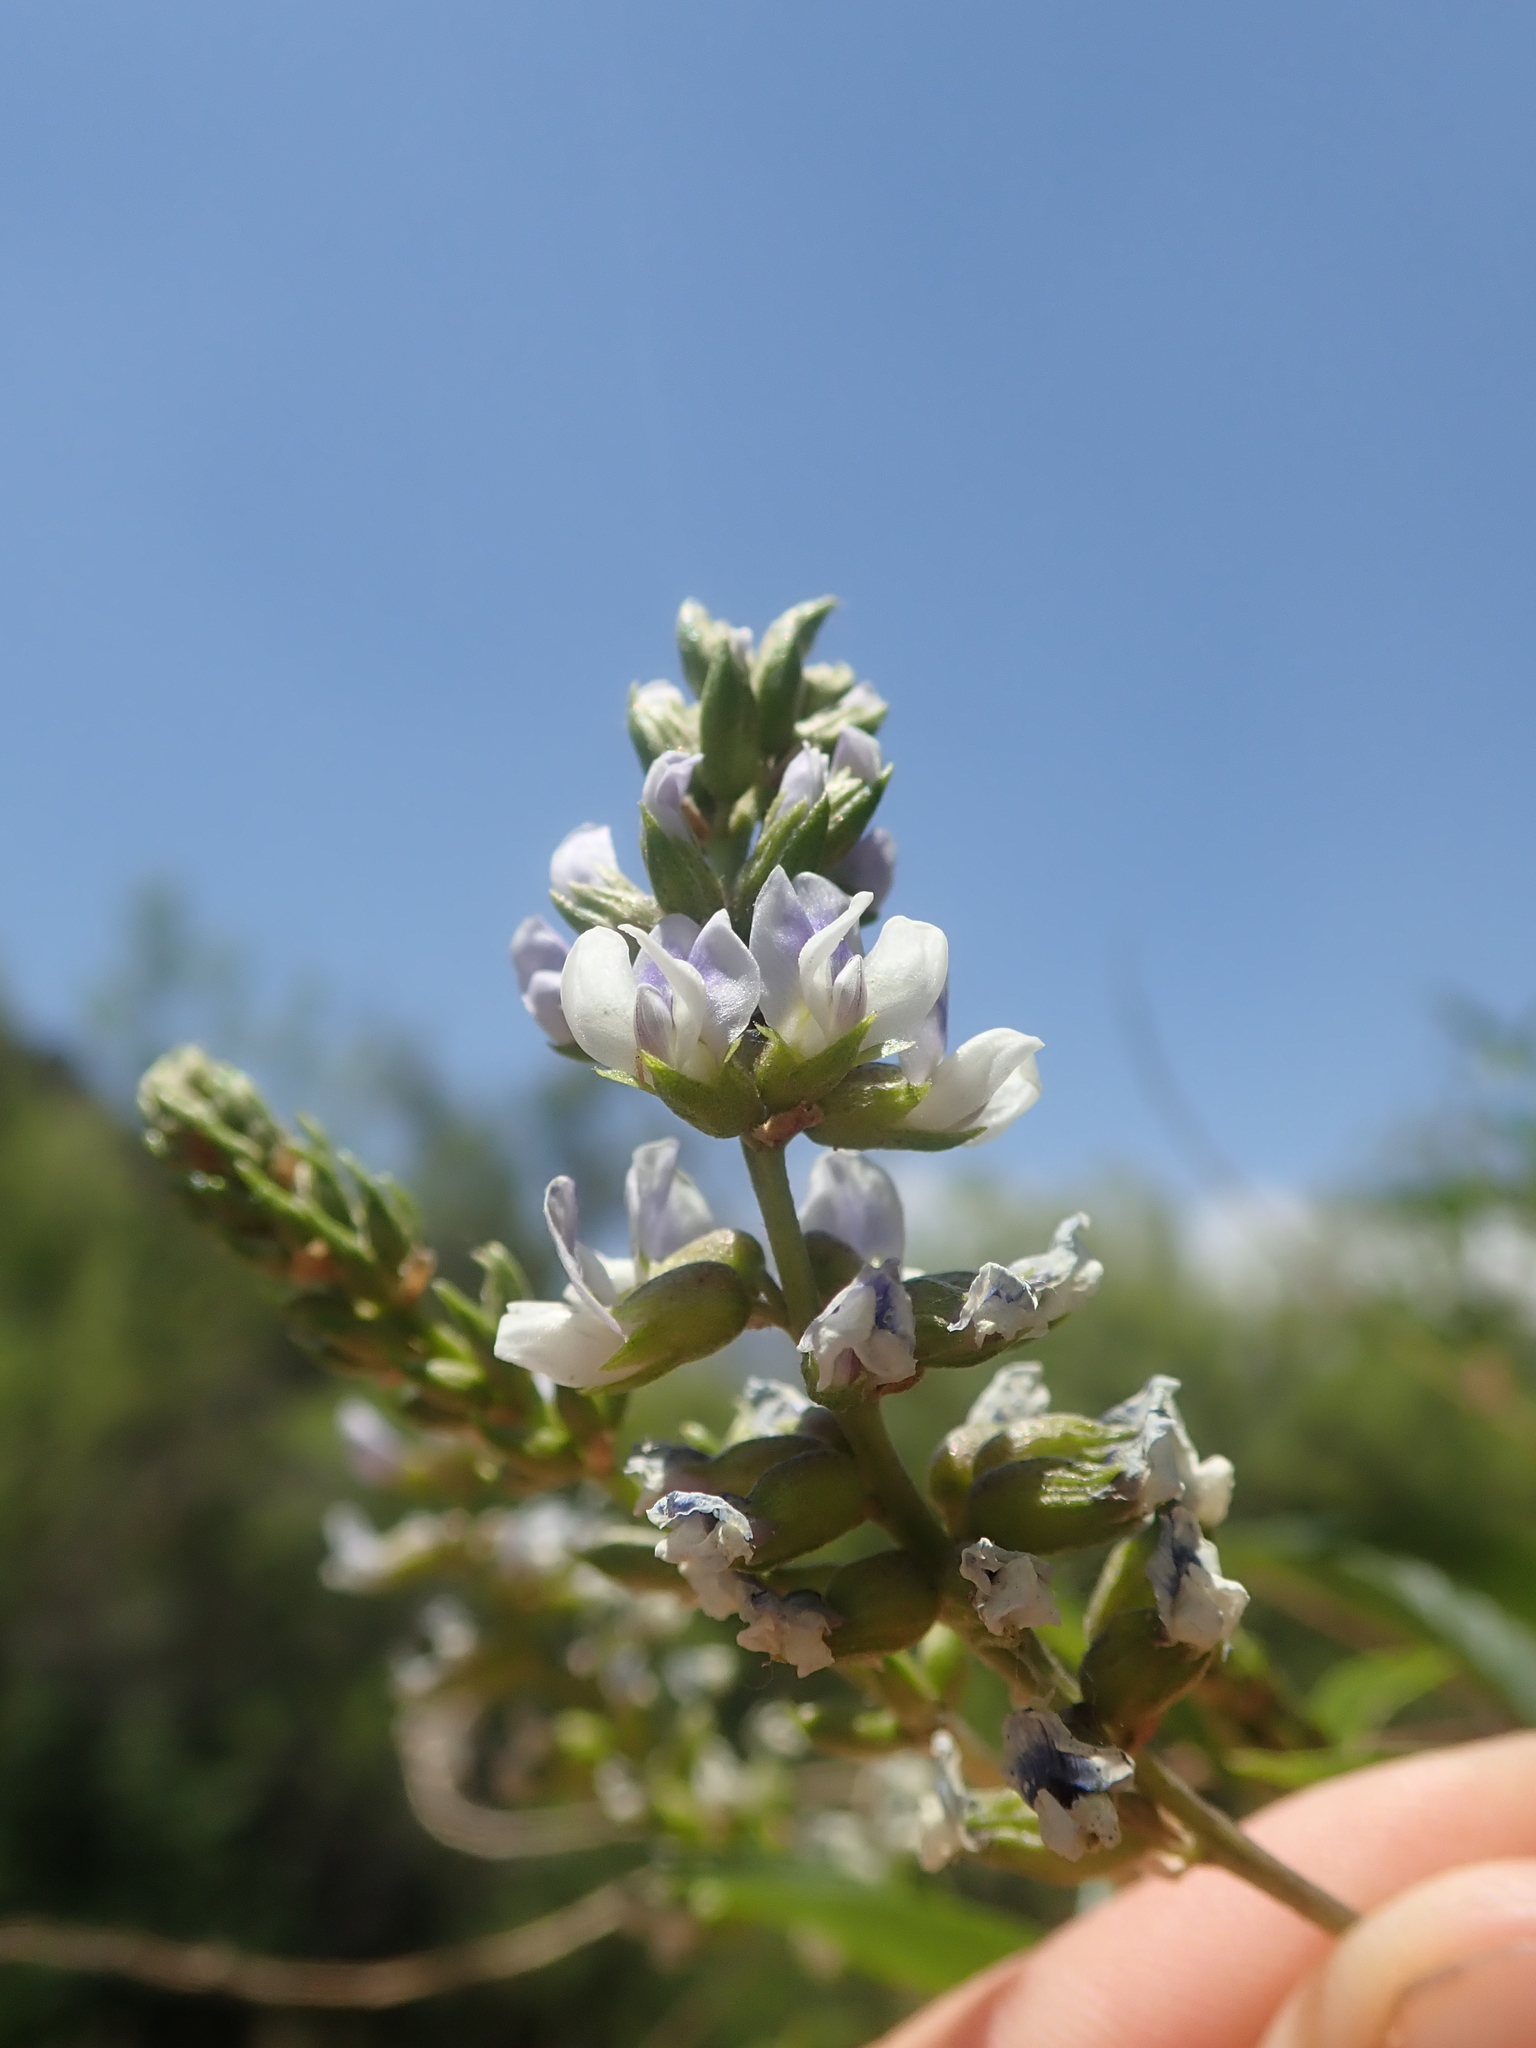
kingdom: Plantae
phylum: Tracheophyta
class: Magnoliopsida
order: Fabales
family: Fabaceae
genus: Psoralea
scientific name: Psoralea Otholobium glandulosum
